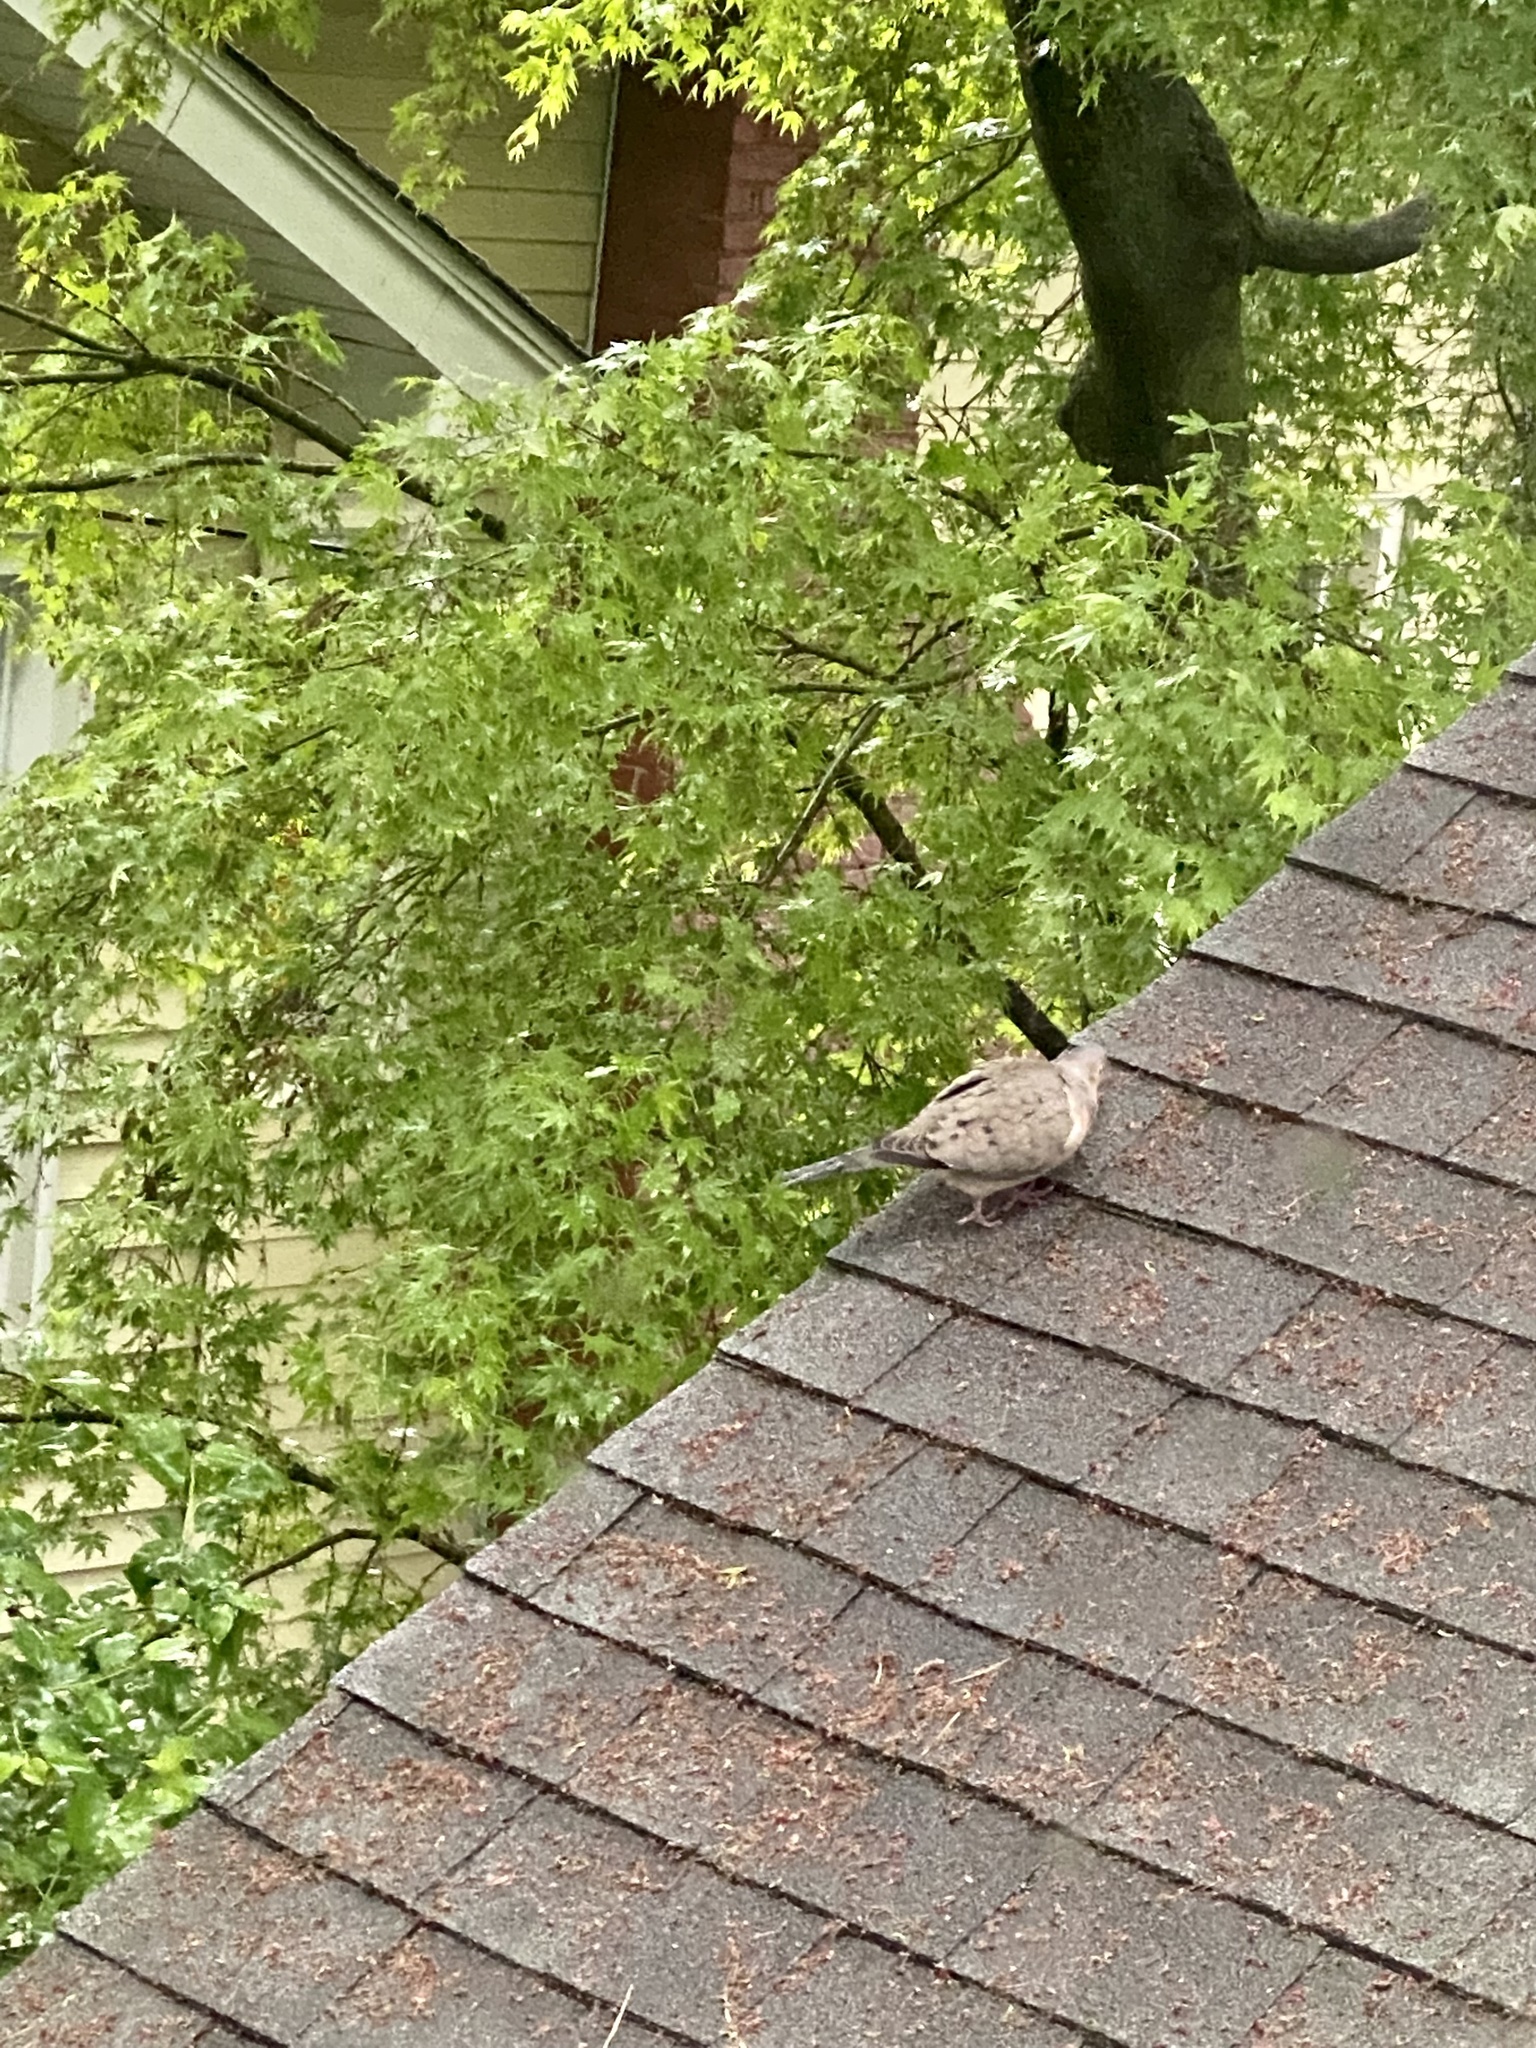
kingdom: Animalia
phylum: Chordata
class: Aves
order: Columbiformes
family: Columbidae
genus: Zenaida
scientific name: Zenaida macroura
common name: Mourning dove
